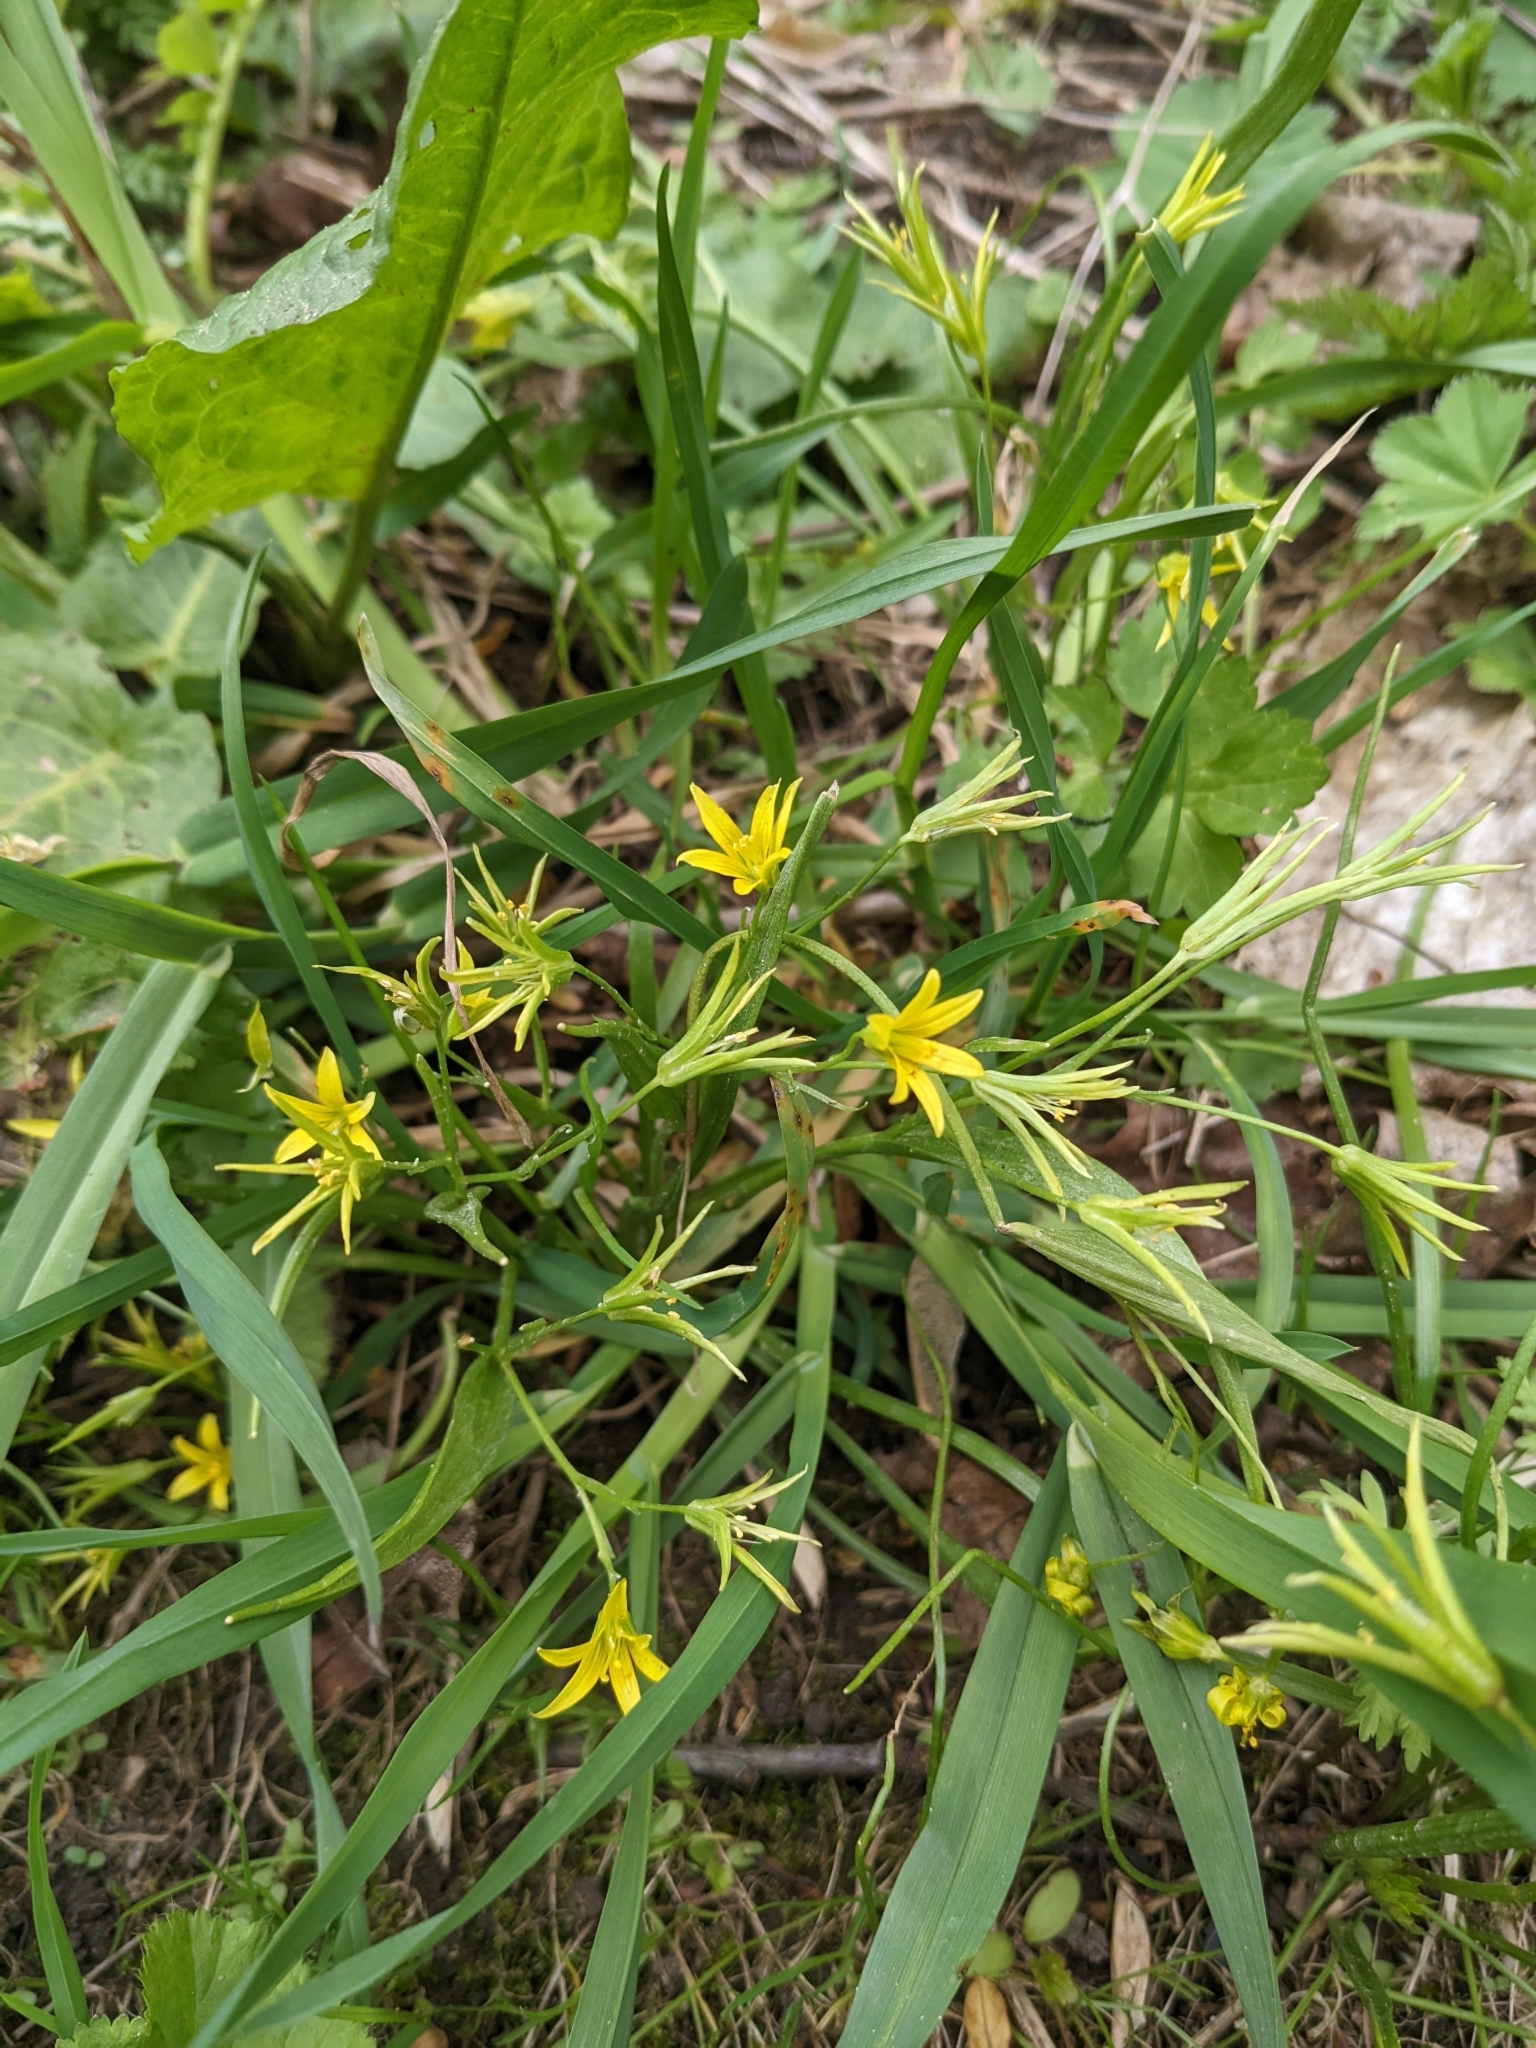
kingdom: Plantae
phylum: Tracheophyta
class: Liliopsida
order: Liliales
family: Liliaceae
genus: Gagea
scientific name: Gagea minima
